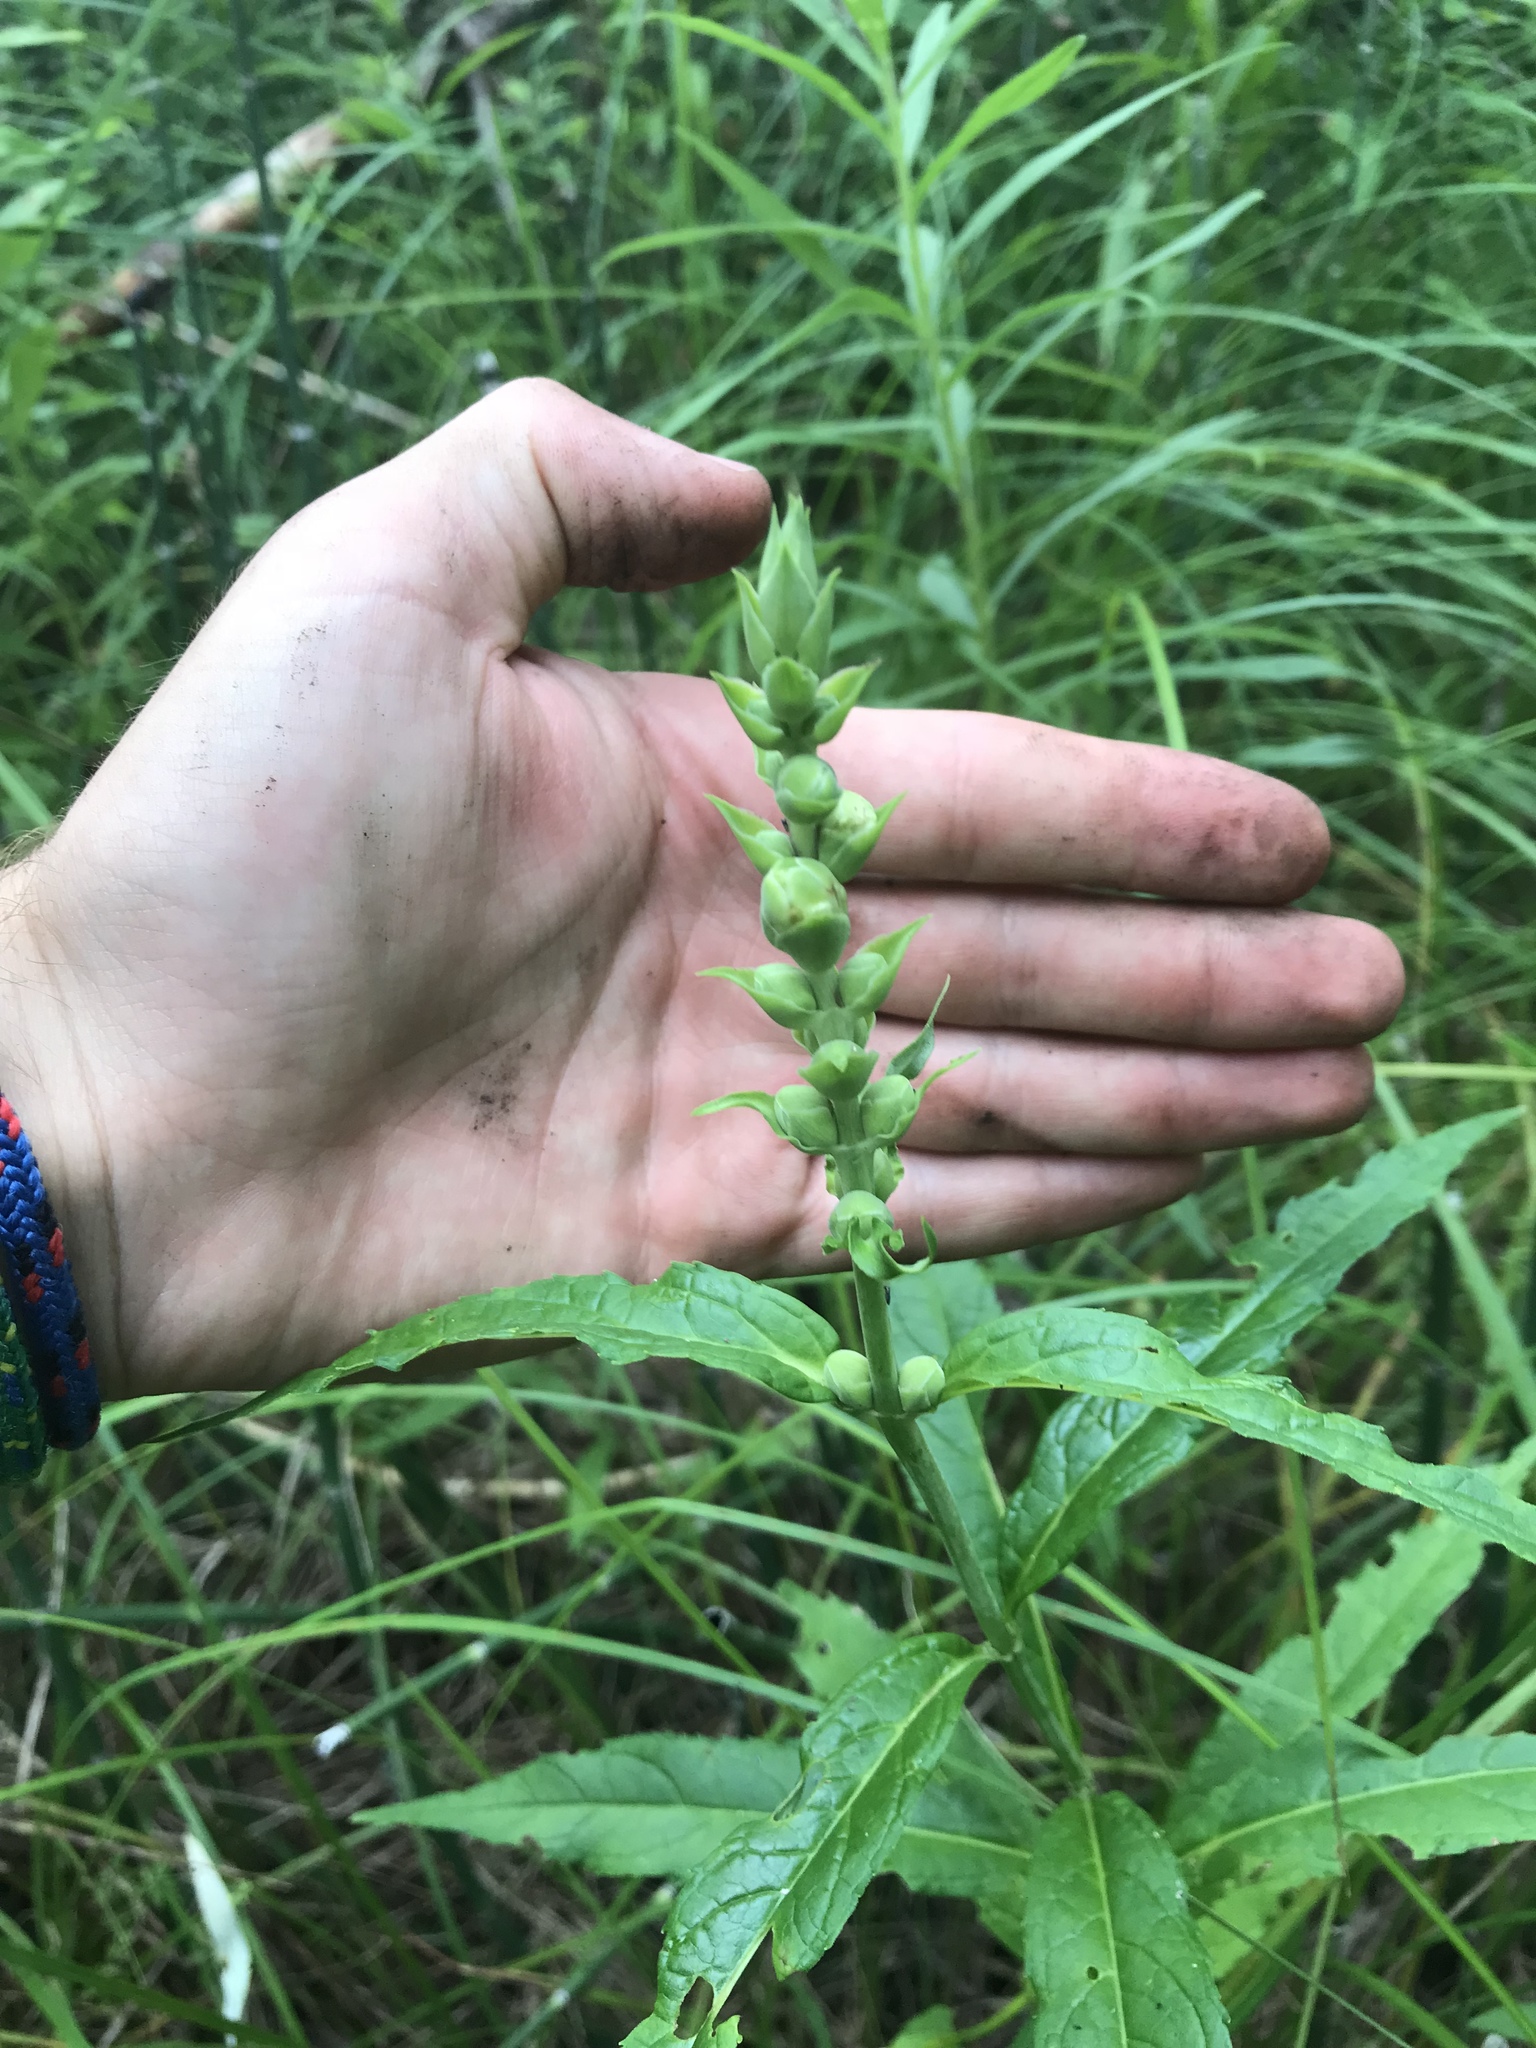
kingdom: Plantae
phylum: Tracheophyta
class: Magnoliopsida
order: Lamiales
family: Plantaginaceae
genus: Chelone
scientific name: Chelone glabra
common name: Snakehead
